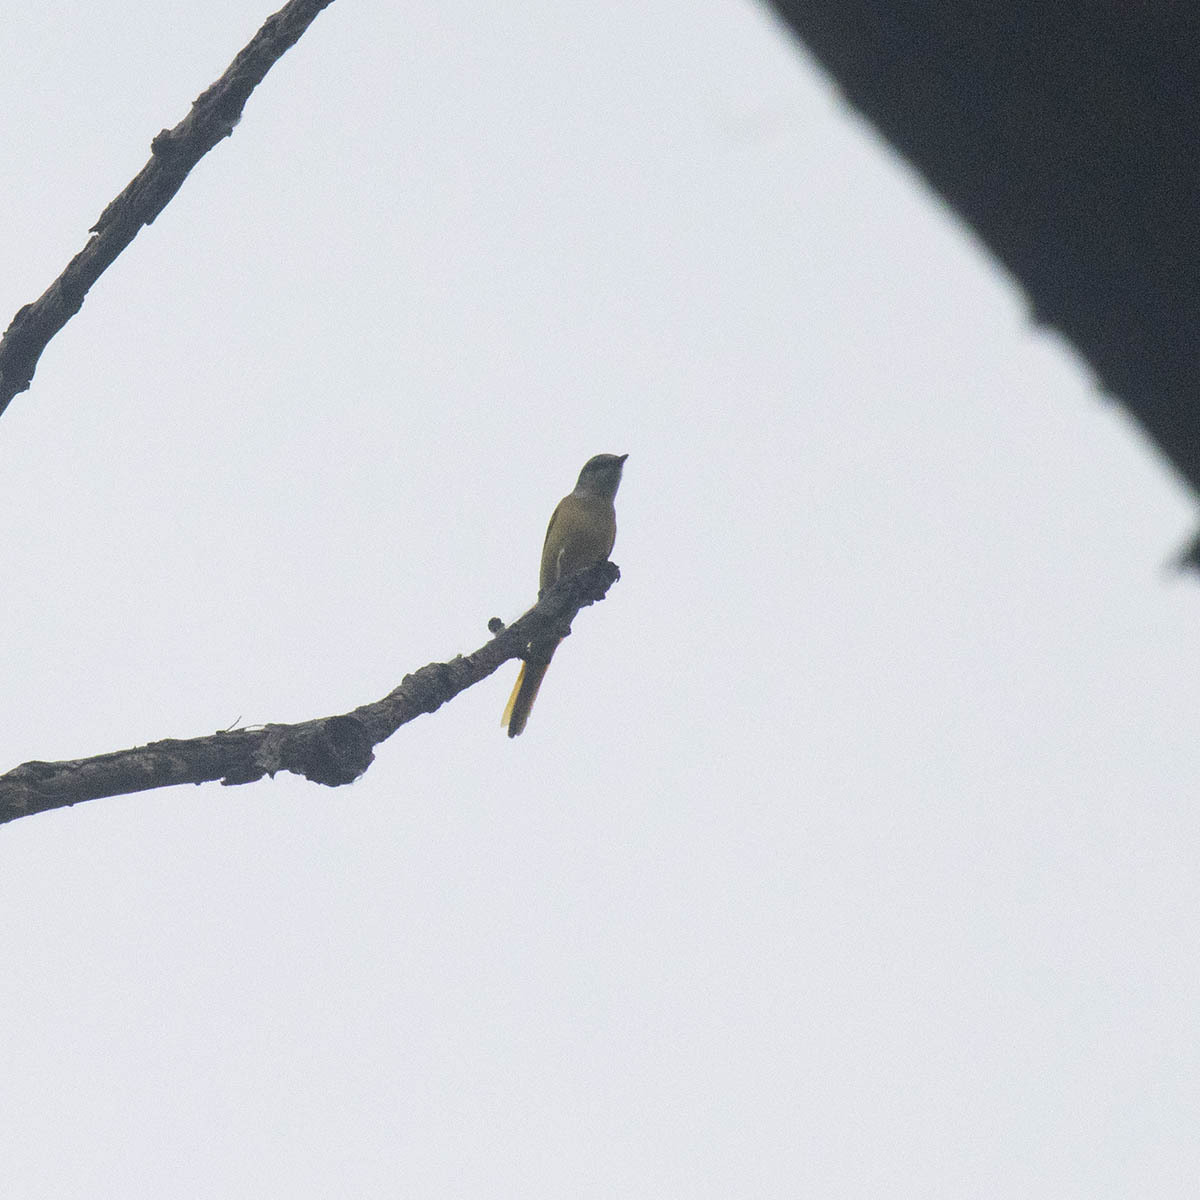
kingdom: Animalia
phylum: Chordata
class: Aves
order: Passeriformes
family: Campephagidae
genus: Pericrocotus
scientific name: Pericrocotus solaris
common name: Grey-chinned minivet
